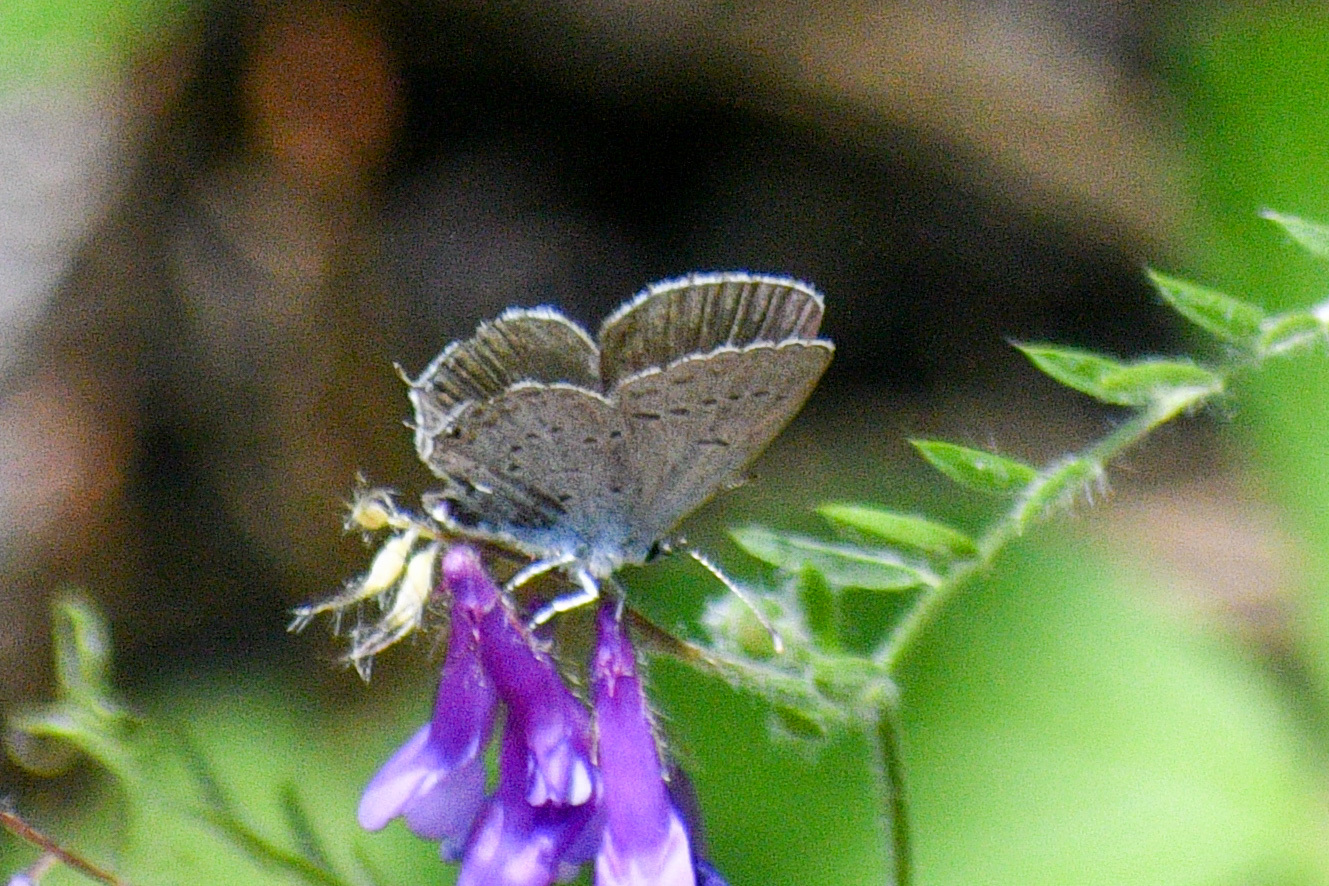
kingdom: Animalia
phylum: Arthropoda
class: Insecta
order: Lepidoptera
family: Lycaenidae
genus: Elkalyce
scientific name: Elkalyce amyntula
